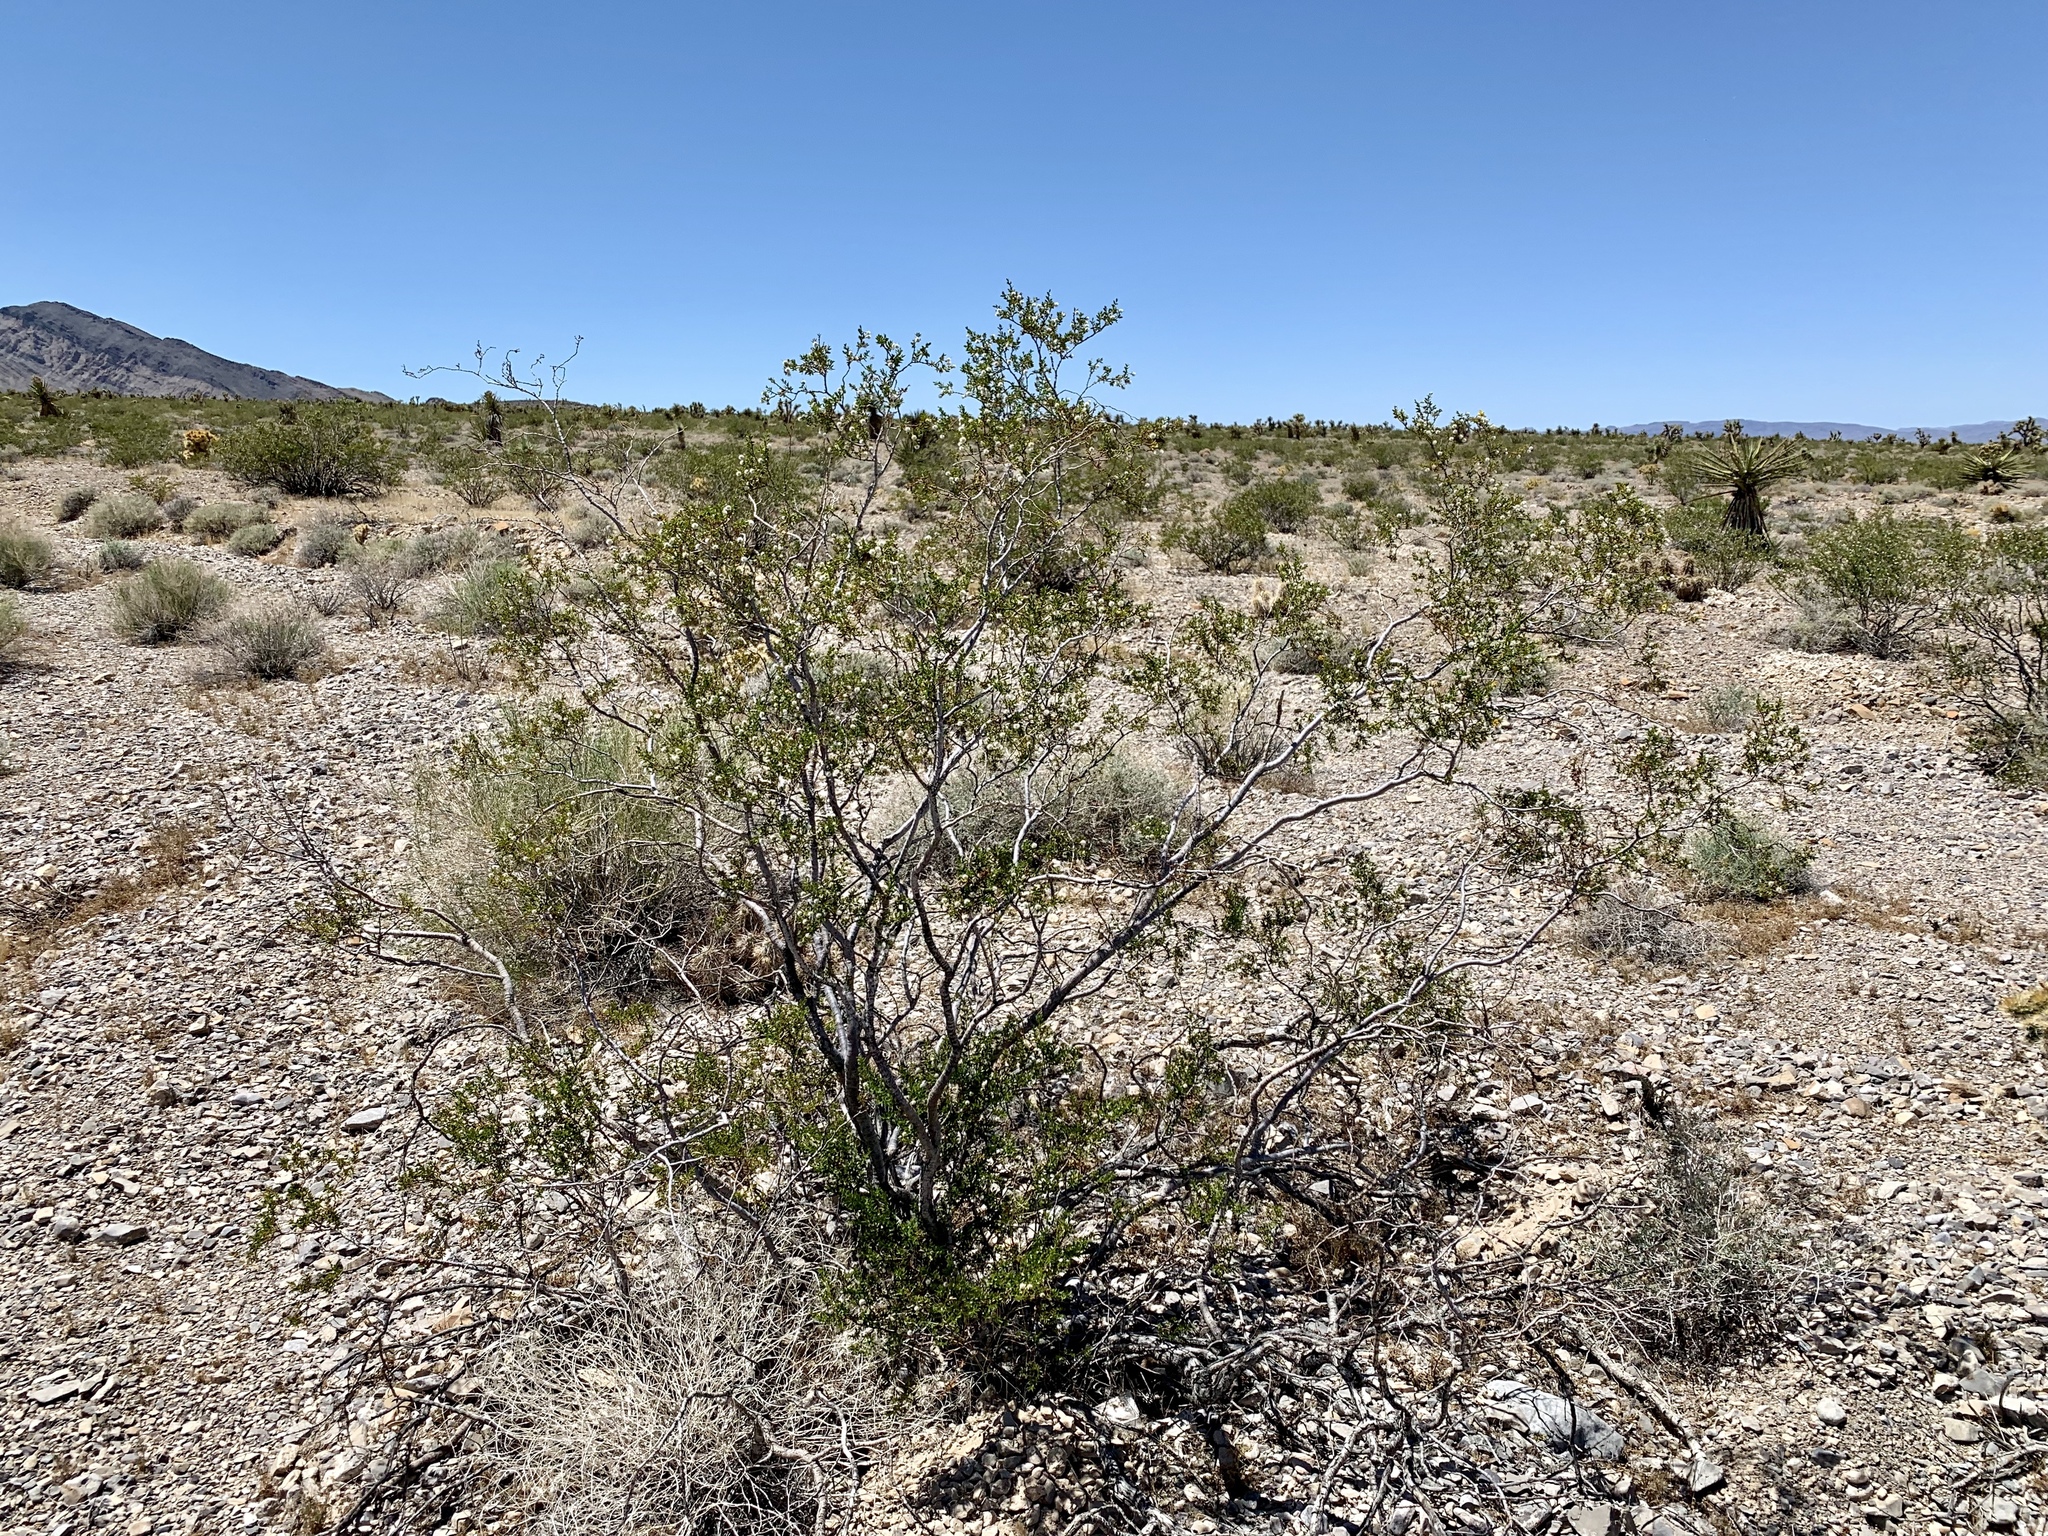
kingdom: Plantae
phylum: Tracheophyta
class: Magnoliopsida
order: Zygophyllales
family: Zygophyllaceae
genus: Larrea
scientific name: Larrea tridentata
